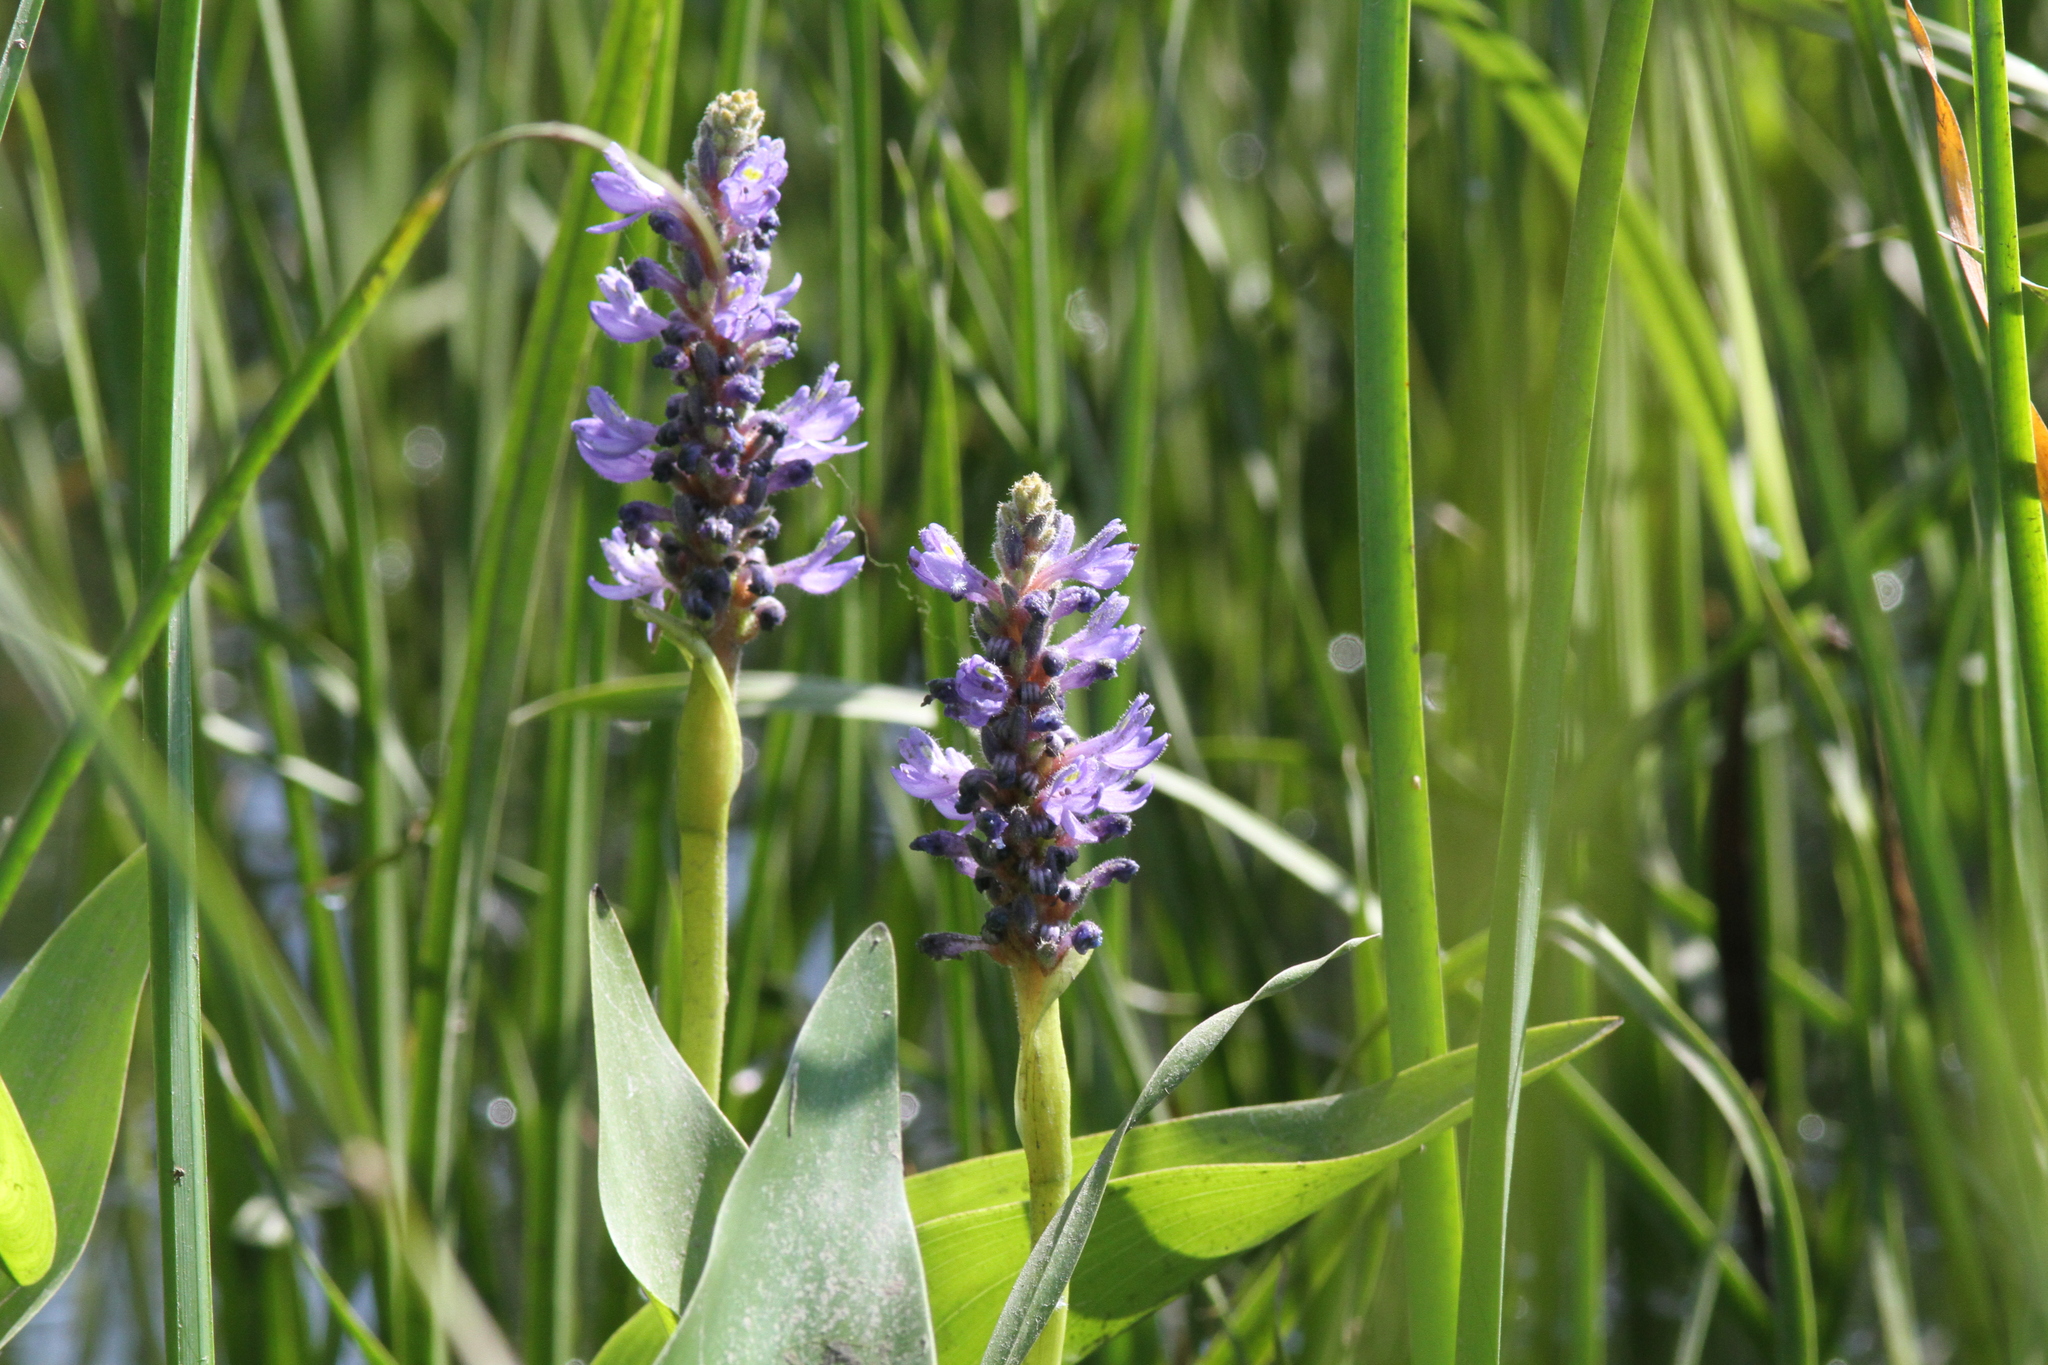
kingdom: Plantae
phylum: Tracheophyta
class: Liliopsida
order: Commelinales
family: Pontederiaceae
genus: Pontederia
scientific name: Pontederia cordata
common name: Pickerelweed
